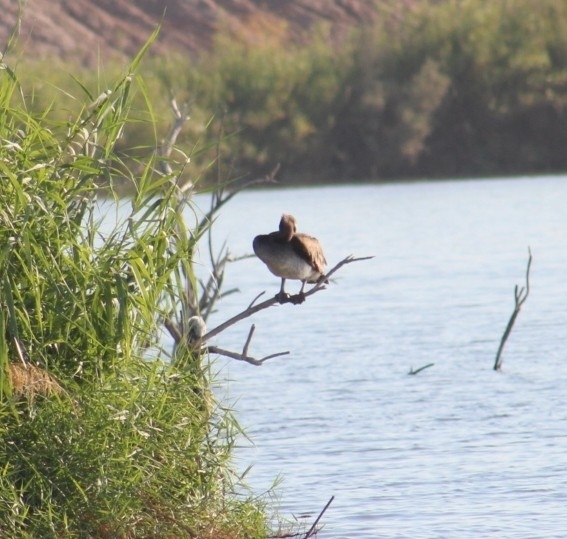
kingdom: Animalia
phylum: Chordata
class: Aves
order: Pelecaniformes
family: Pelecanidae
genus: Pelecanus
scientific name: Pelecanus occidentalis
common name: Brown pelican
